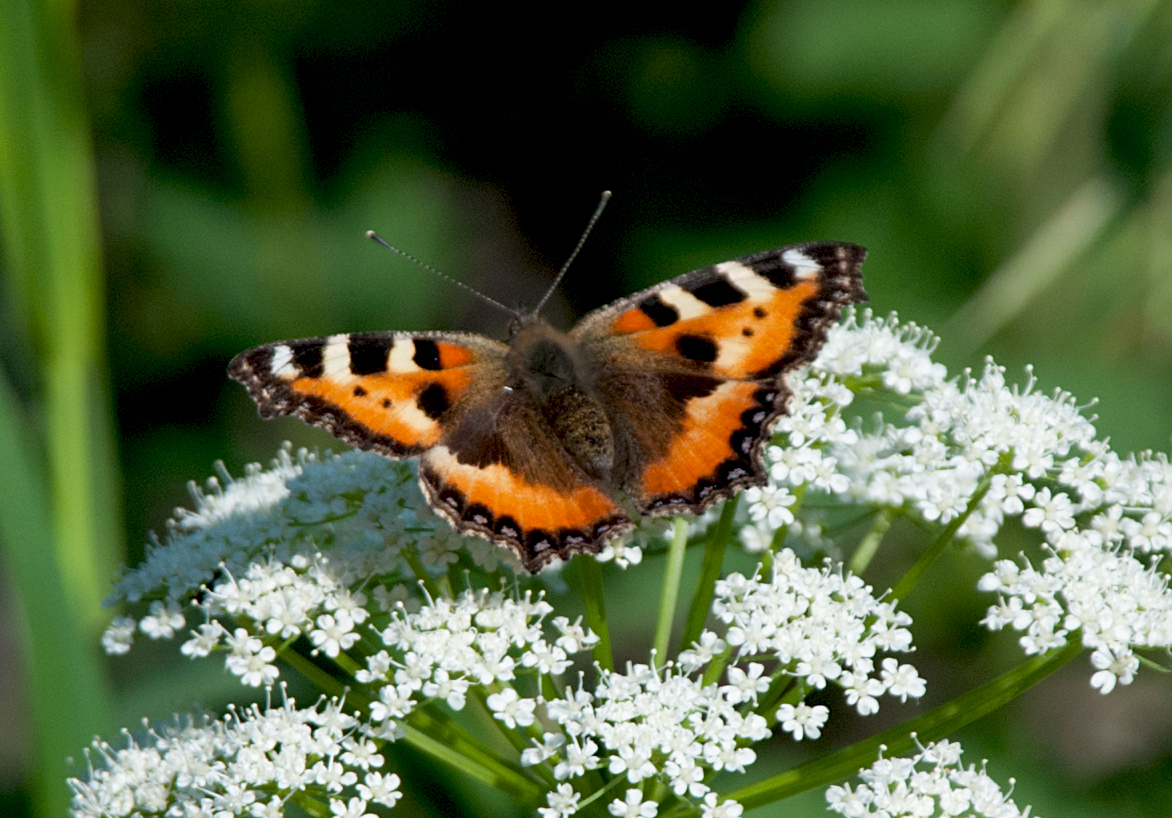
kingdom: Animalia
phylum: Arthropoda
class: Insecta
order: Lepidoptera
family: Nymphalidae
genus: Aglais
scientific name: Aglais urticae
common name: Small tortoiseshell
